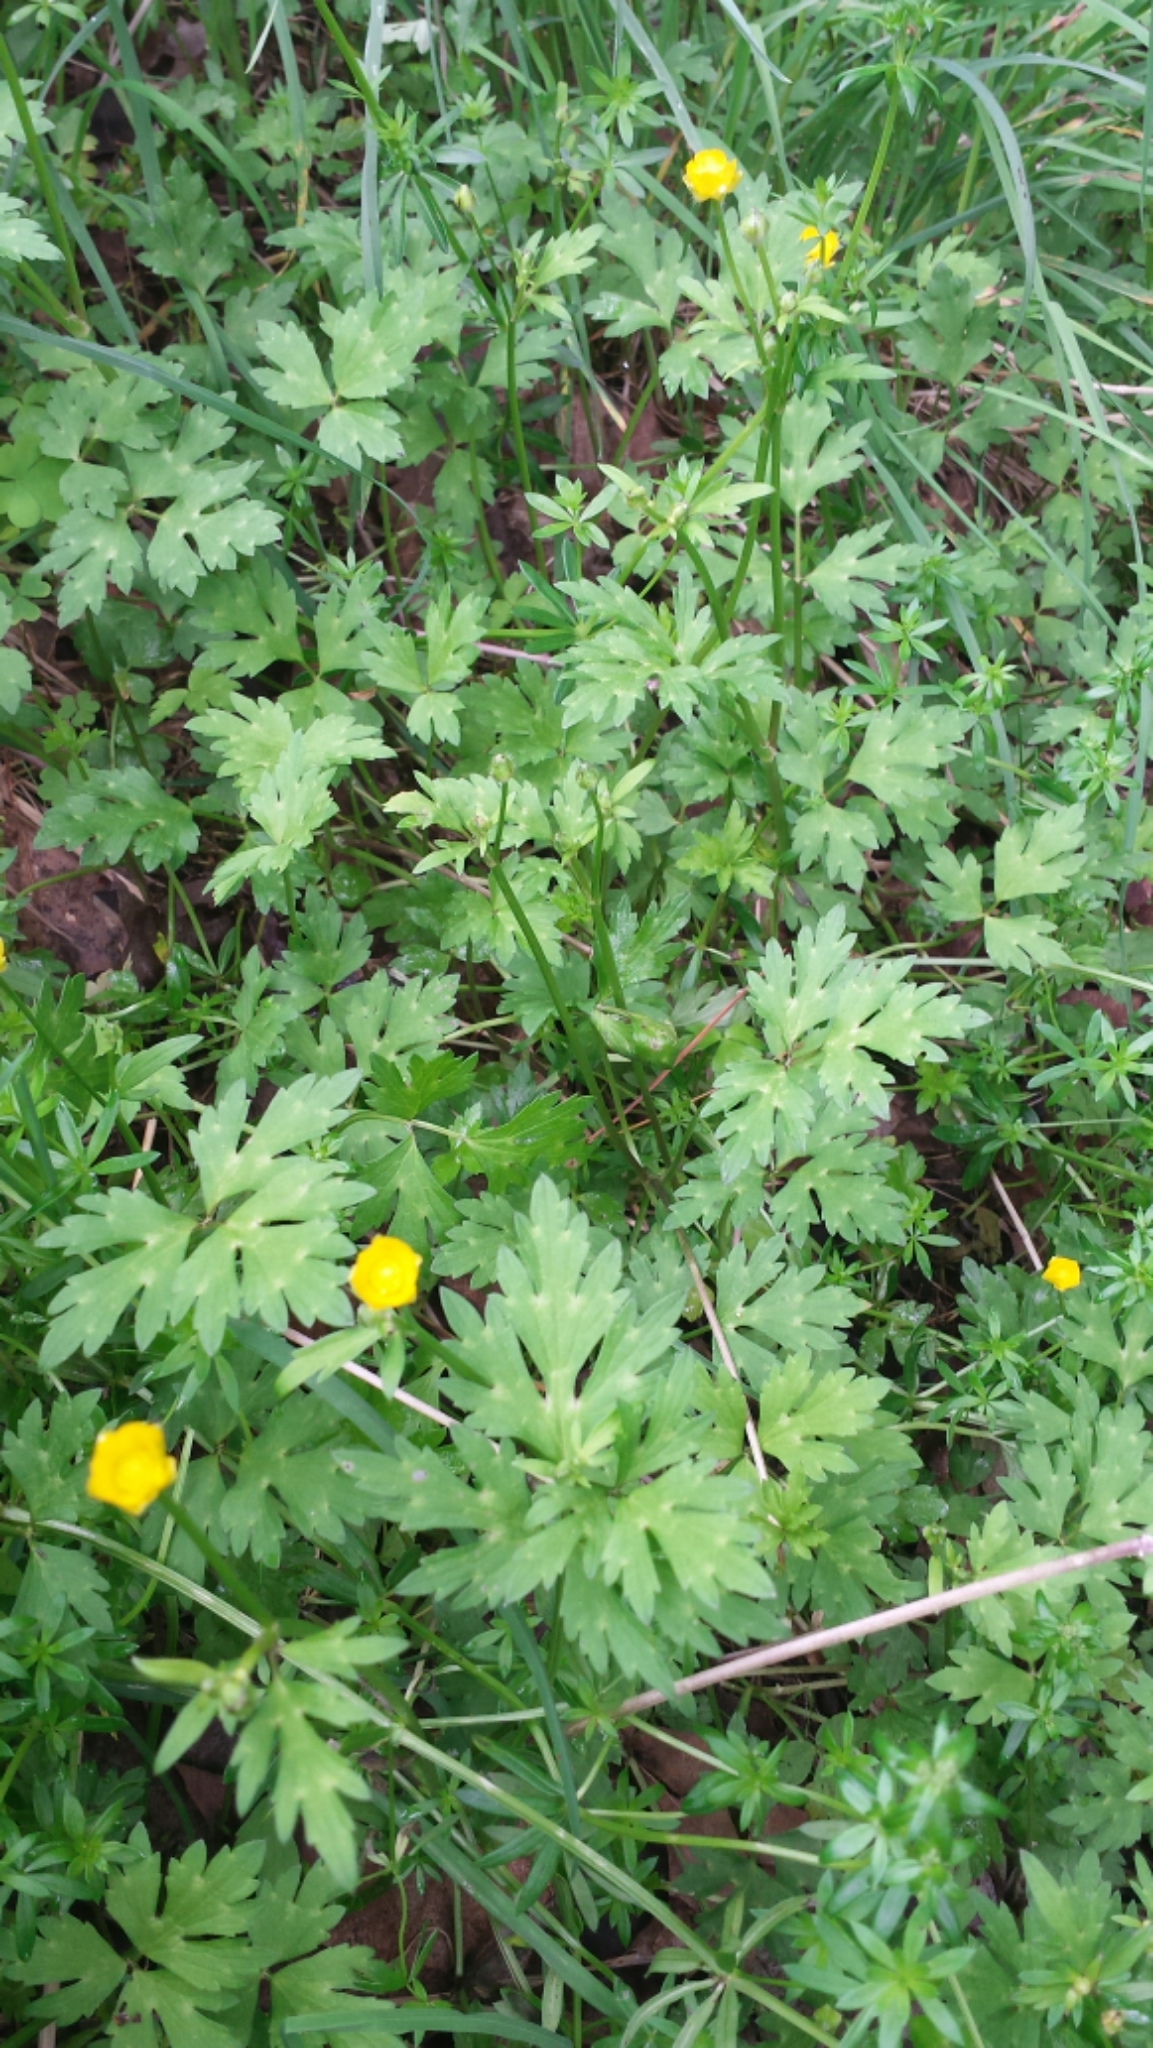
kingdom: Plantae
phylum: Tracheophyta
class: Magnoliopsida
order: Ranunculales
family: Ranunculaceae
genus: Ranunculus
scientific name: Ranunculus repens
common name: Creeping buttercup
